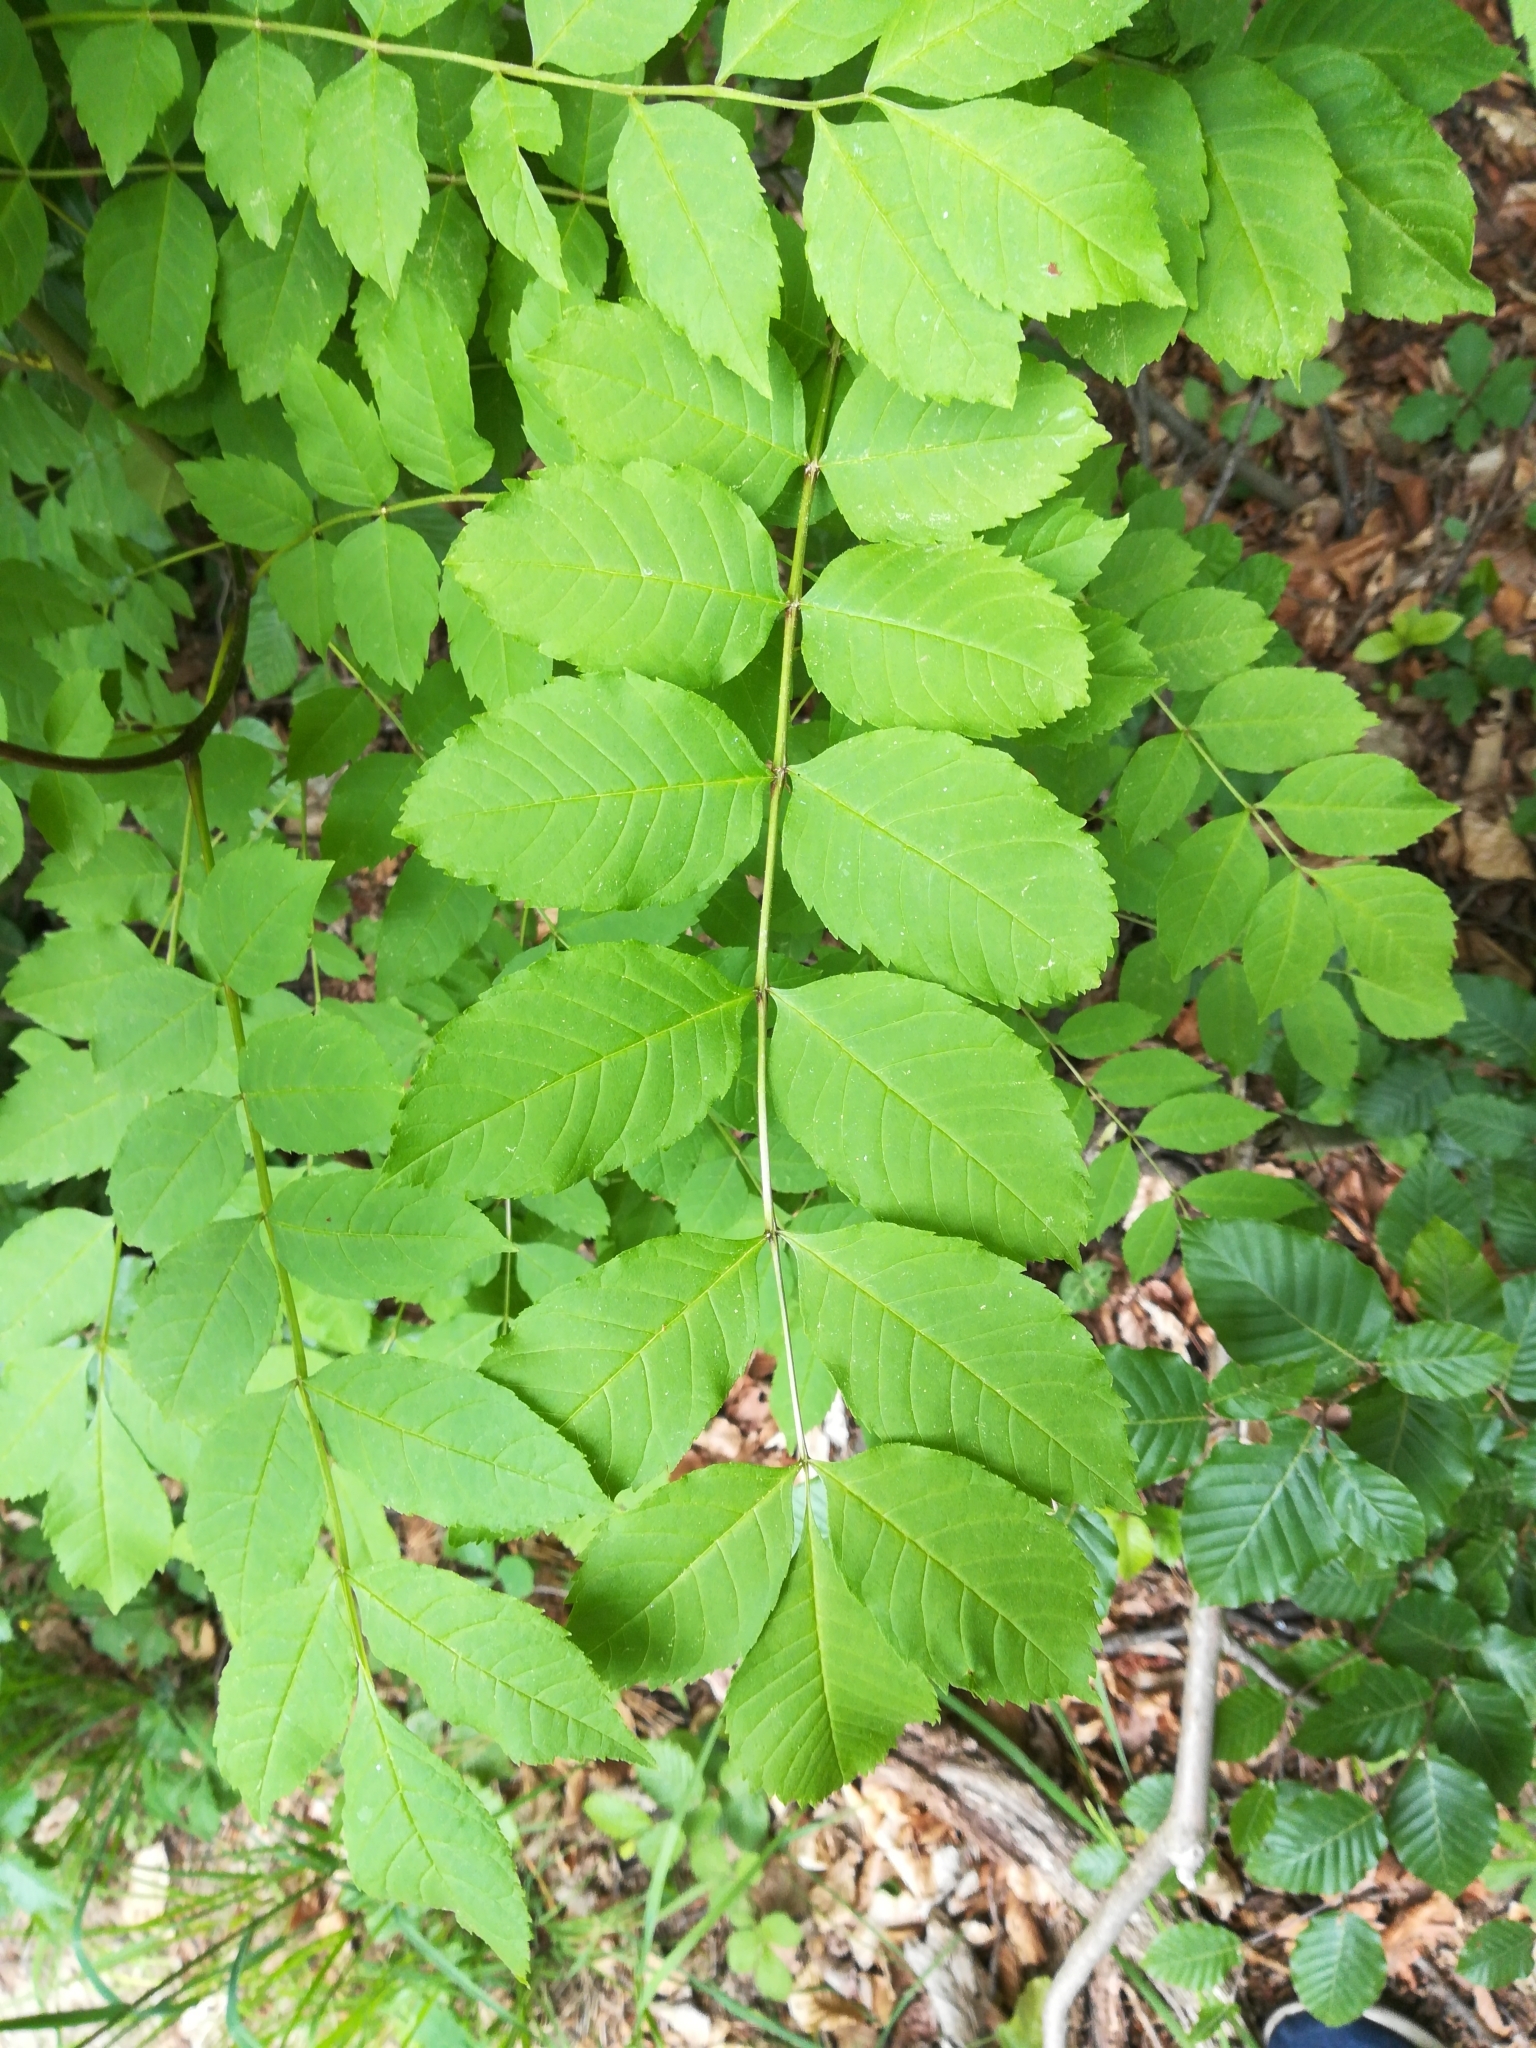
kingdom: Plantae
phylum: Tracheophyta
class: Magnoliopsida
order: Lamiales
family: Oleaceae
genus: Fraxinus
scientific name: Fraxinus excelsior
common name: European ash
